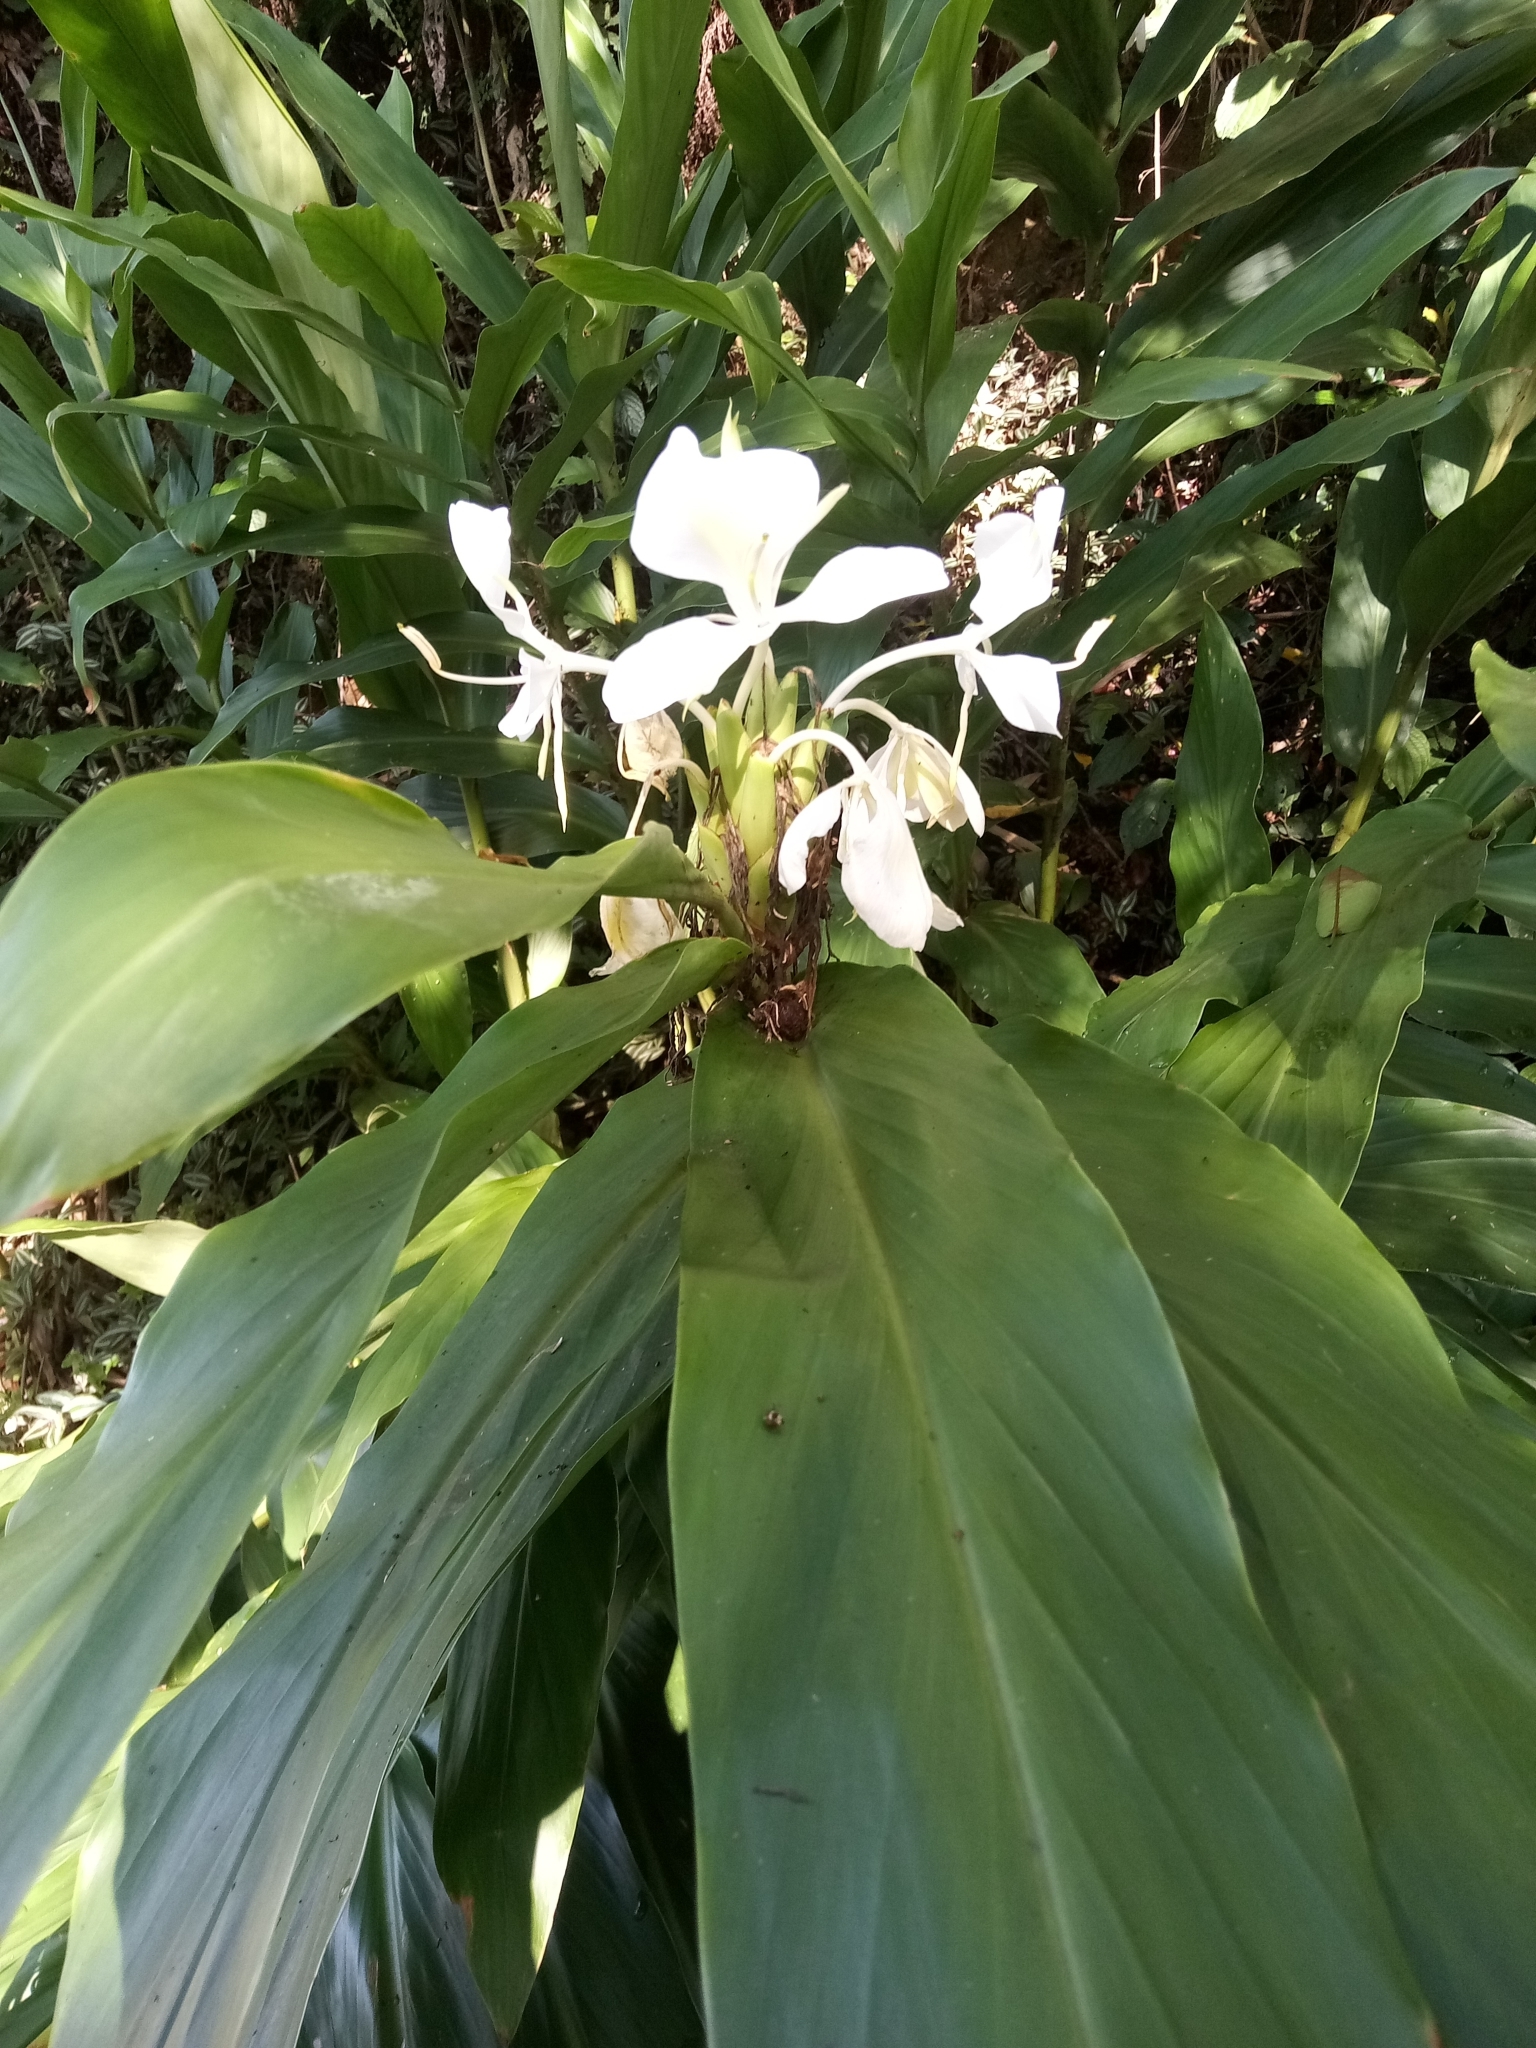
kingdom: Plantae
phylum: Tracheophyta
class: Liliopsida
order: Zingiberales
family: Zingiberaceae
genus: Hedychium
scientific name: Hedychium coronarium
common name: White garland-lily
